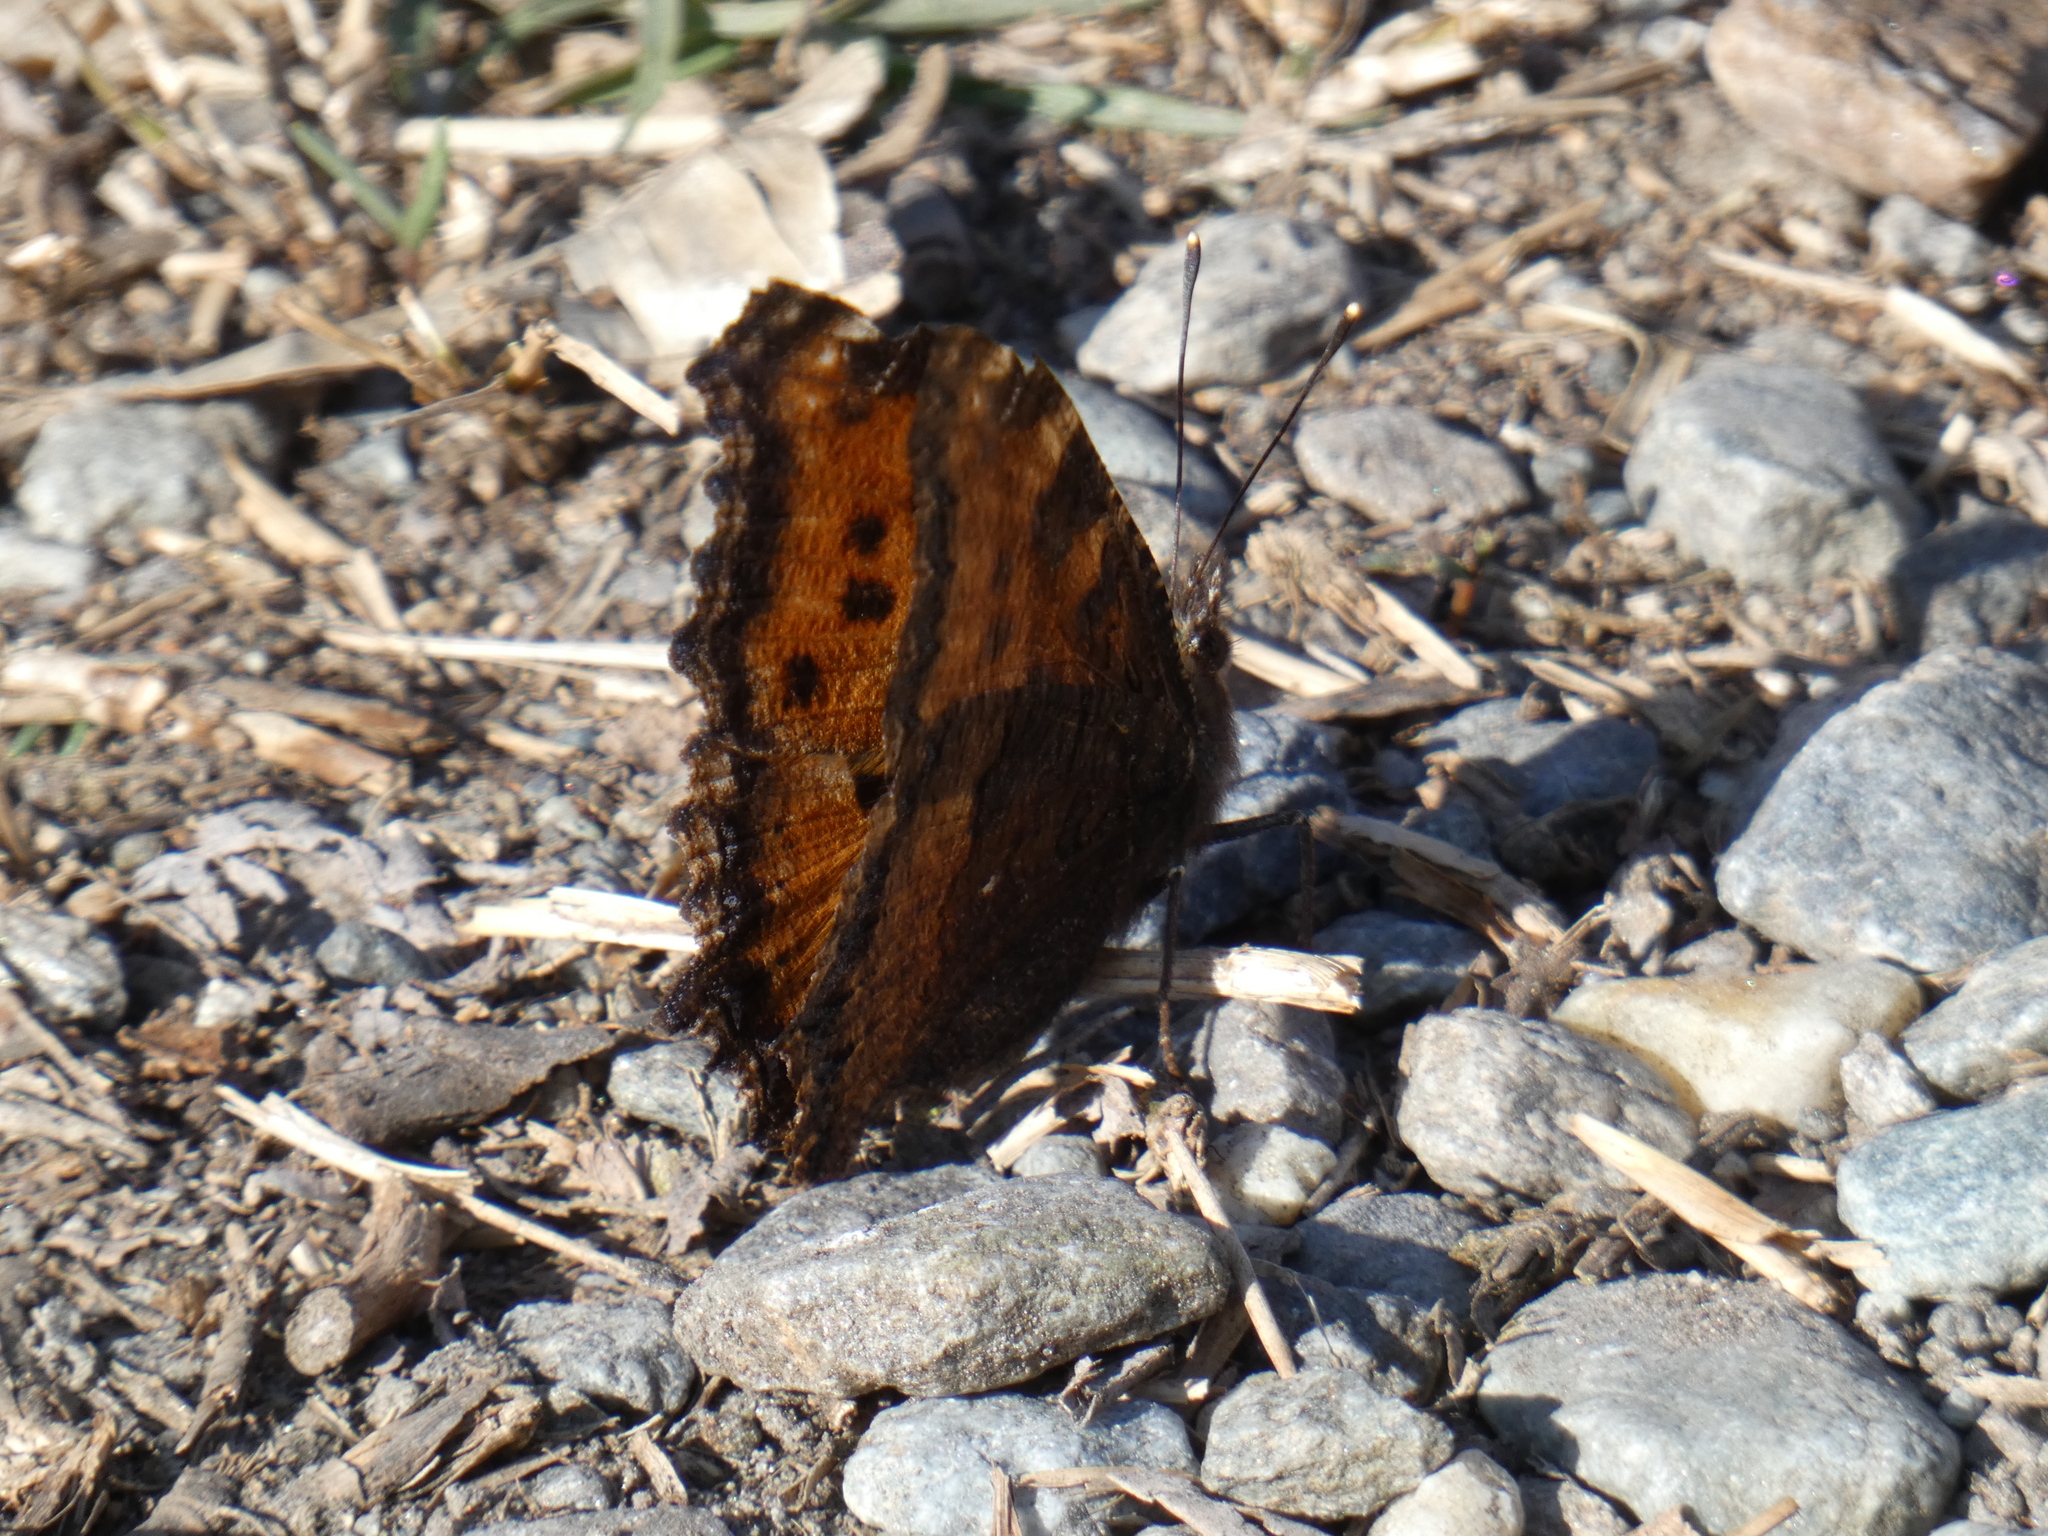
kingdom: Animalia
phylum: Arthropoda
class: Insecta
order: Lepidoptera
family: Nymphalidae
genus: Nymphalis
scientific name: Nymphalis polychloros
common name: Large tortoiseshell
